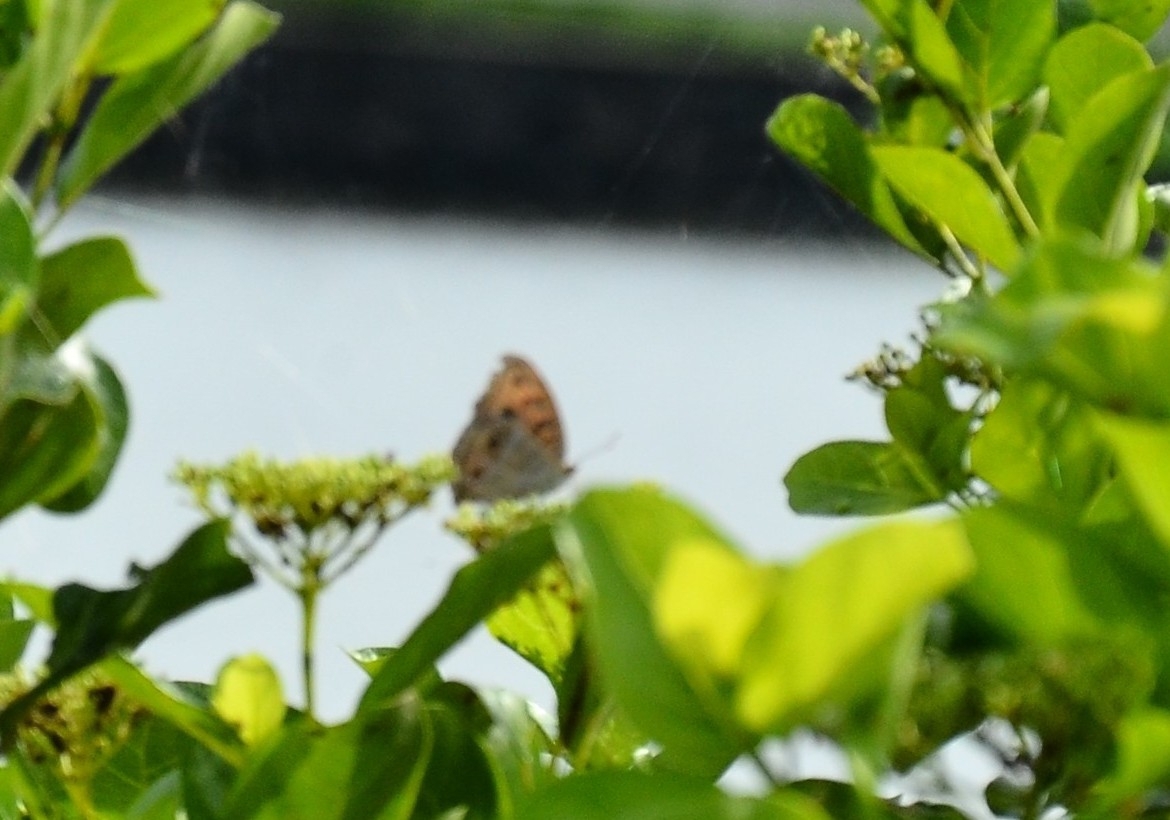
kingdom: Animalia
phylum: Arthropoda
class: Insecta
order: Lepidoptera
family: Nymphalidae
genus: Junonia
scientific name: Junonia almana
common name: Peacock pansy
